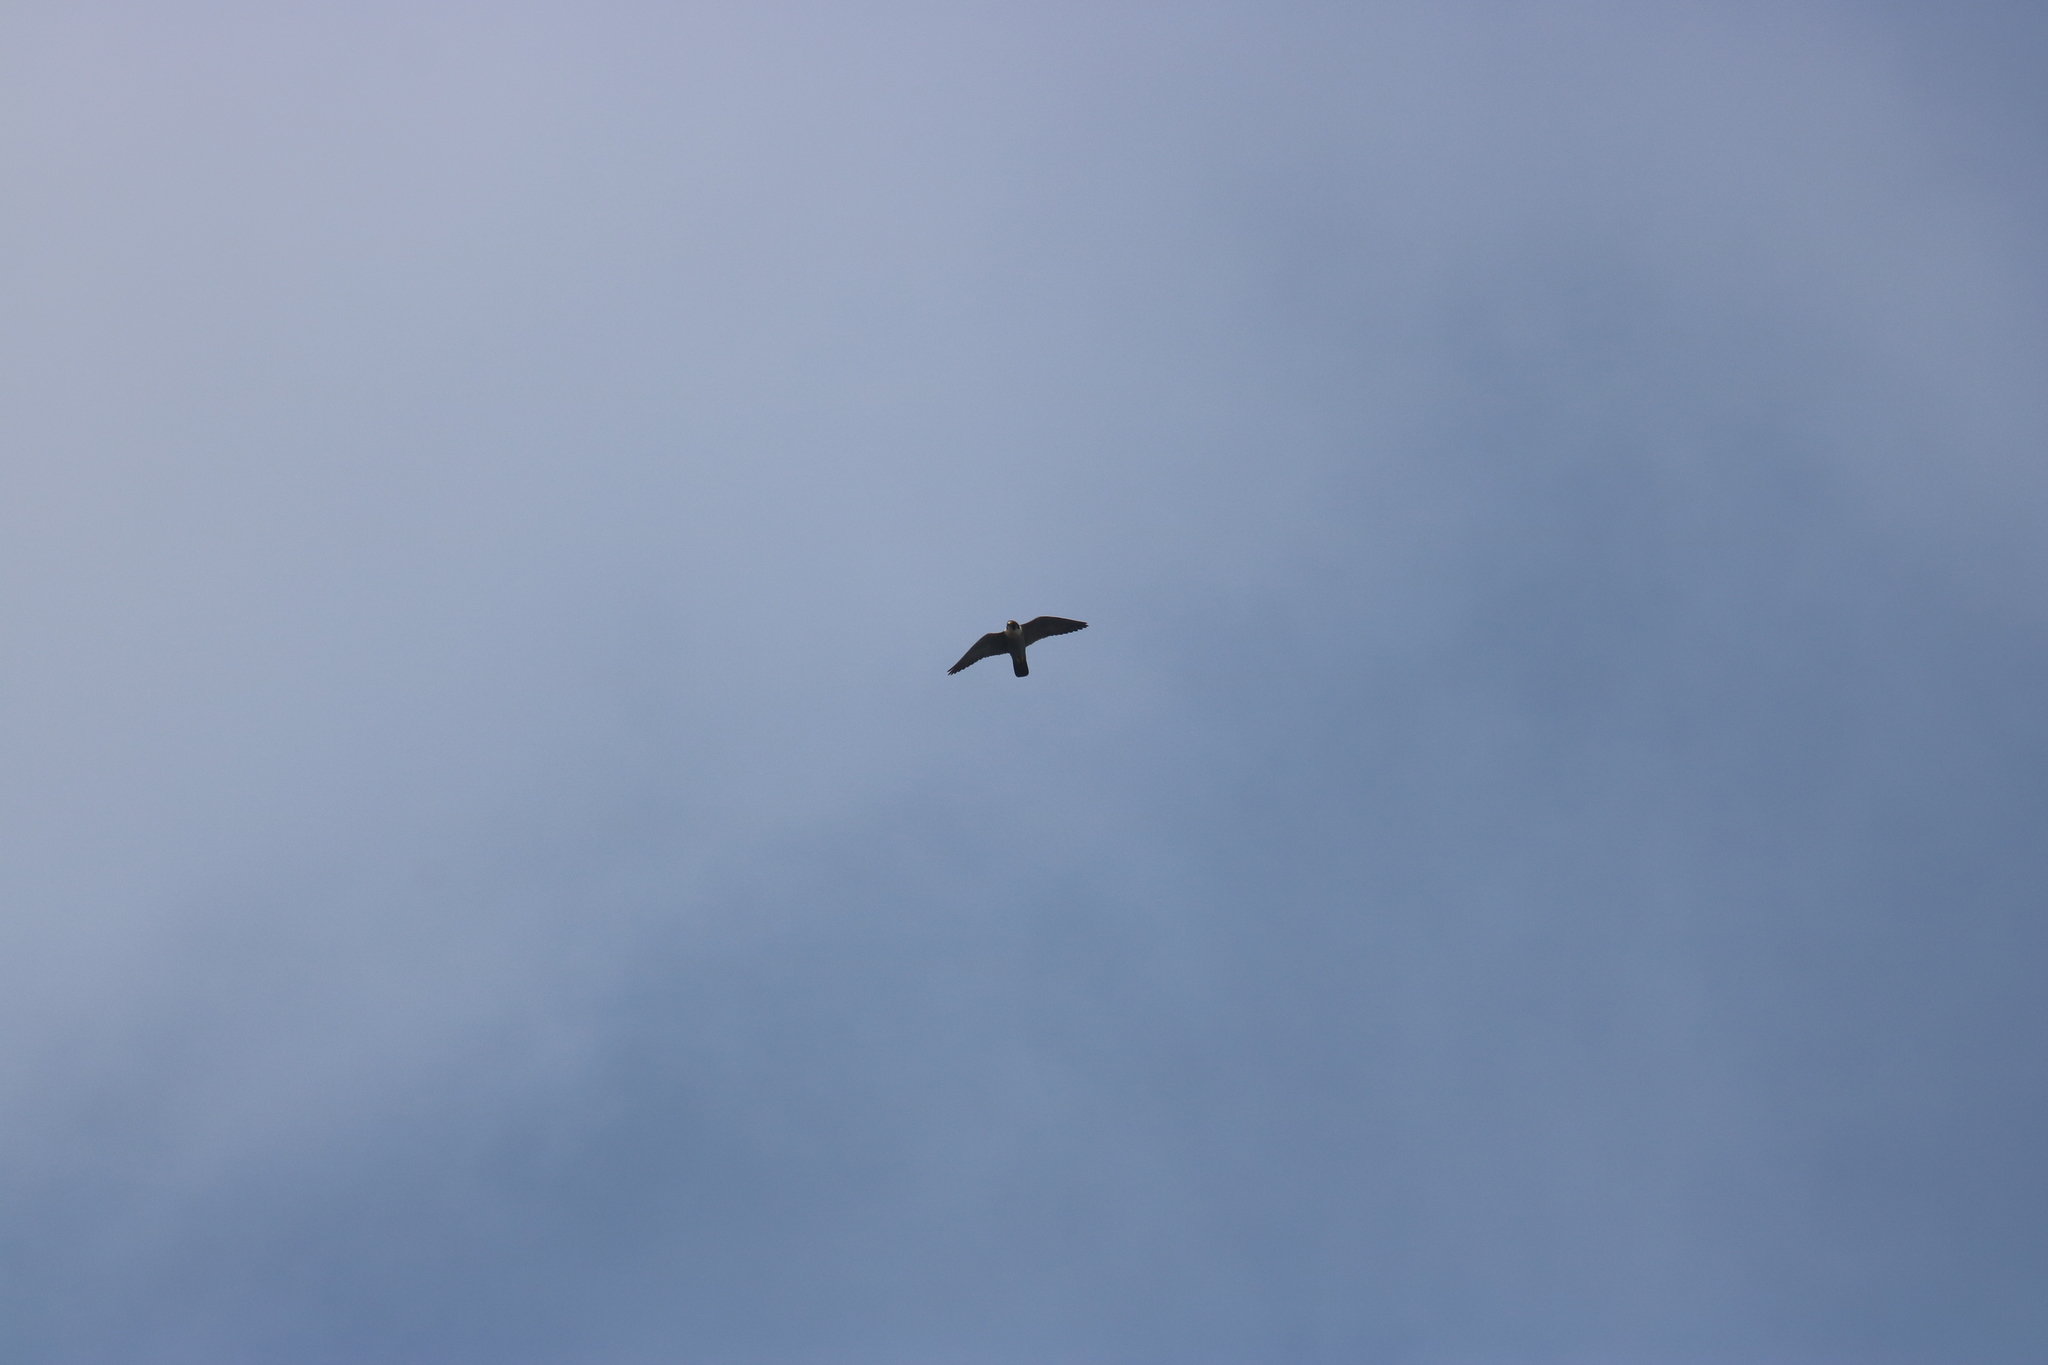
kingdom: Animalia
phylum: Chordata
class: Aves
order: Falconiformes
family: Falconidae
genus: Falco
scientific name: Falco peregrinus
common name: Peregrine falcon
